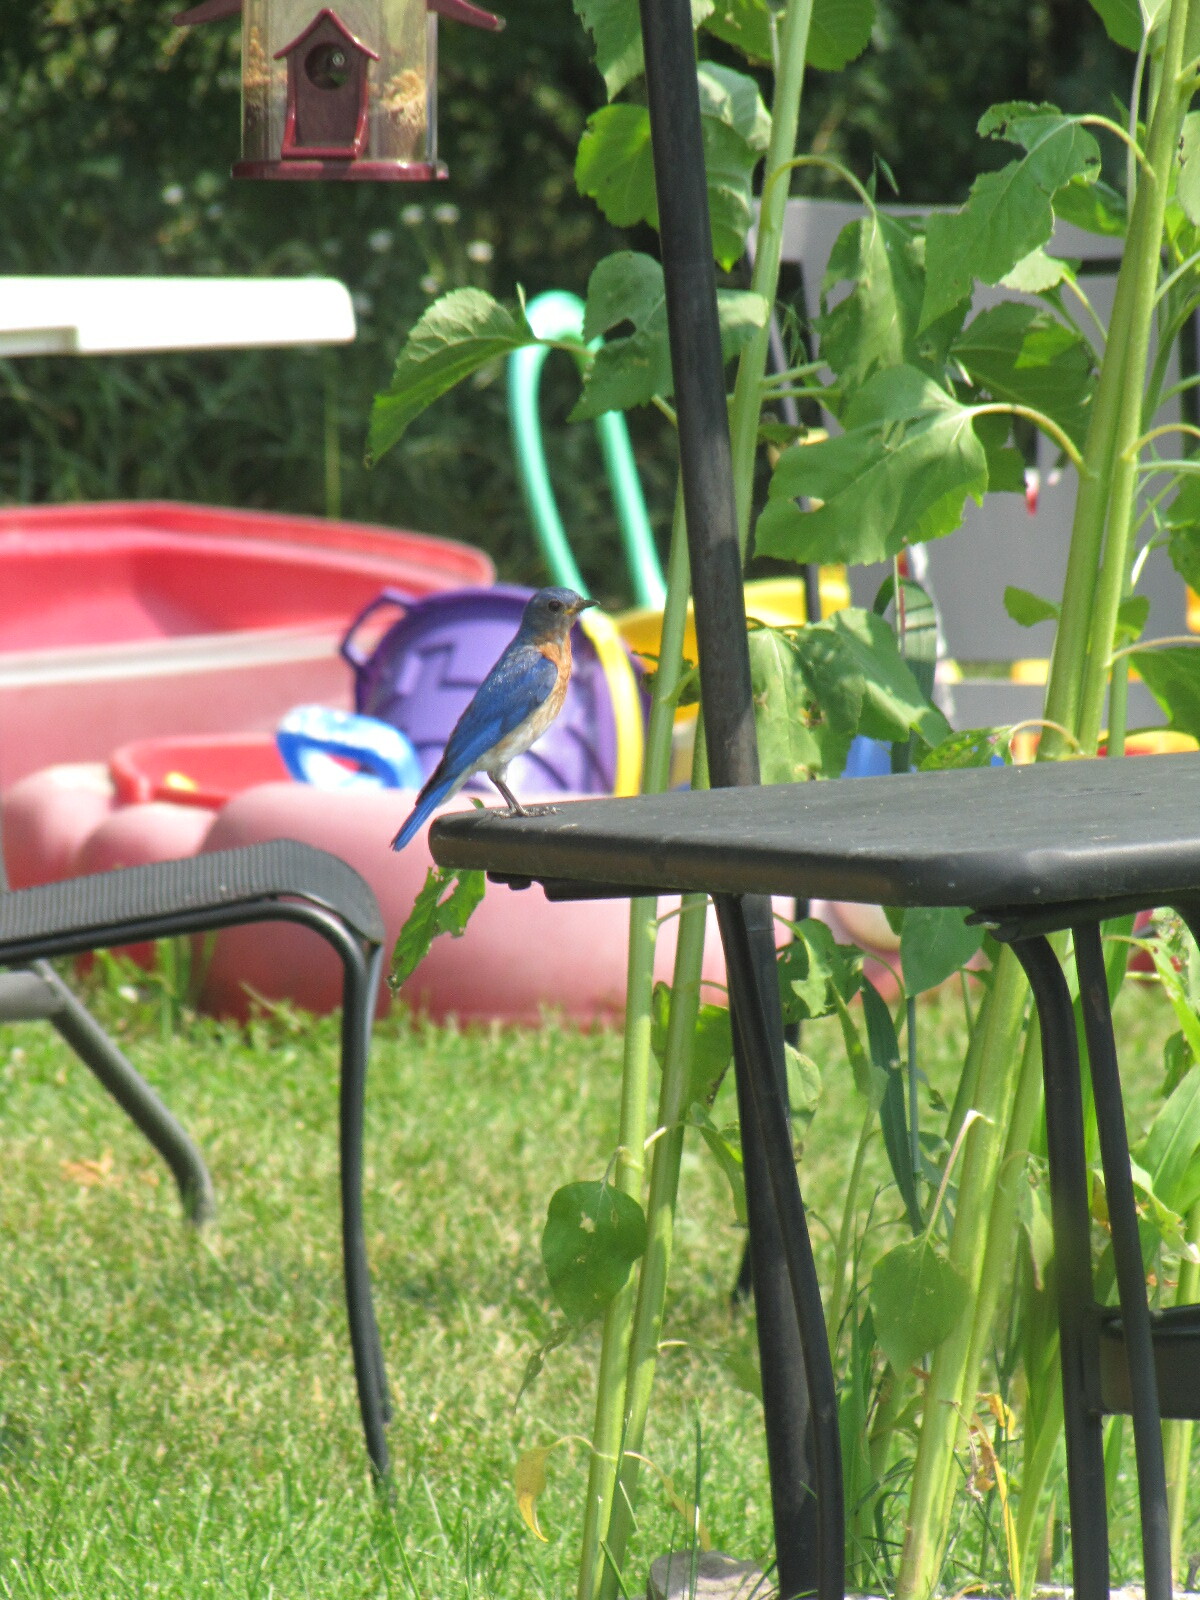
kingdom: Animalia
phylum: Chordata
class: Aves
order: Passeriformes
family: Turdidae
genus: Sialia
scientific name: Sialia sialis
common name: Eastern bluebird
